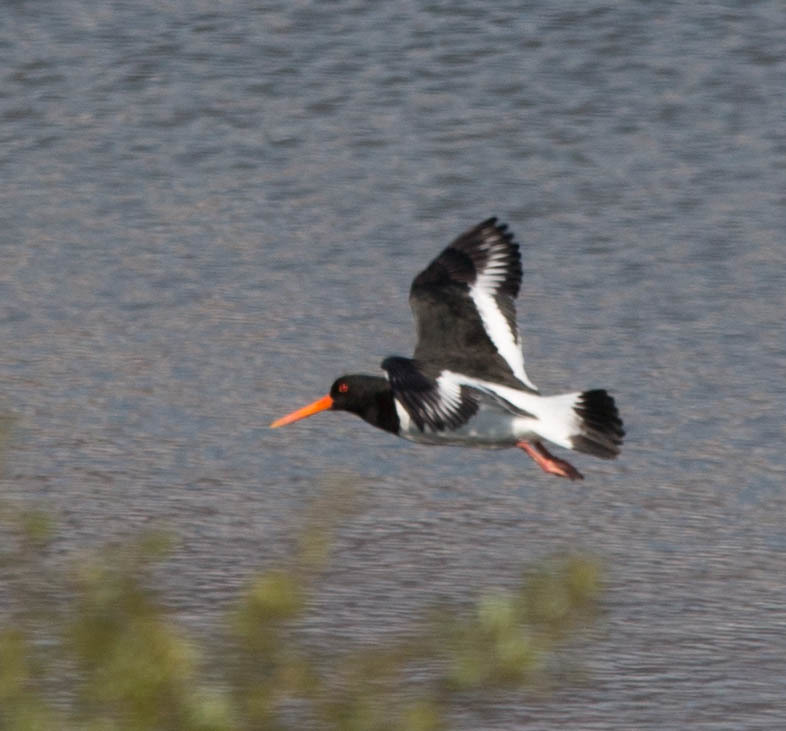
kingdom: Animalia
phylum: Chordata
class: Aves
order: Charadriiformes
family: Haematopodidae
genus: Haematopus
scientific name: Haematopus ostralegus
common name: Eurasian oystercatcher
